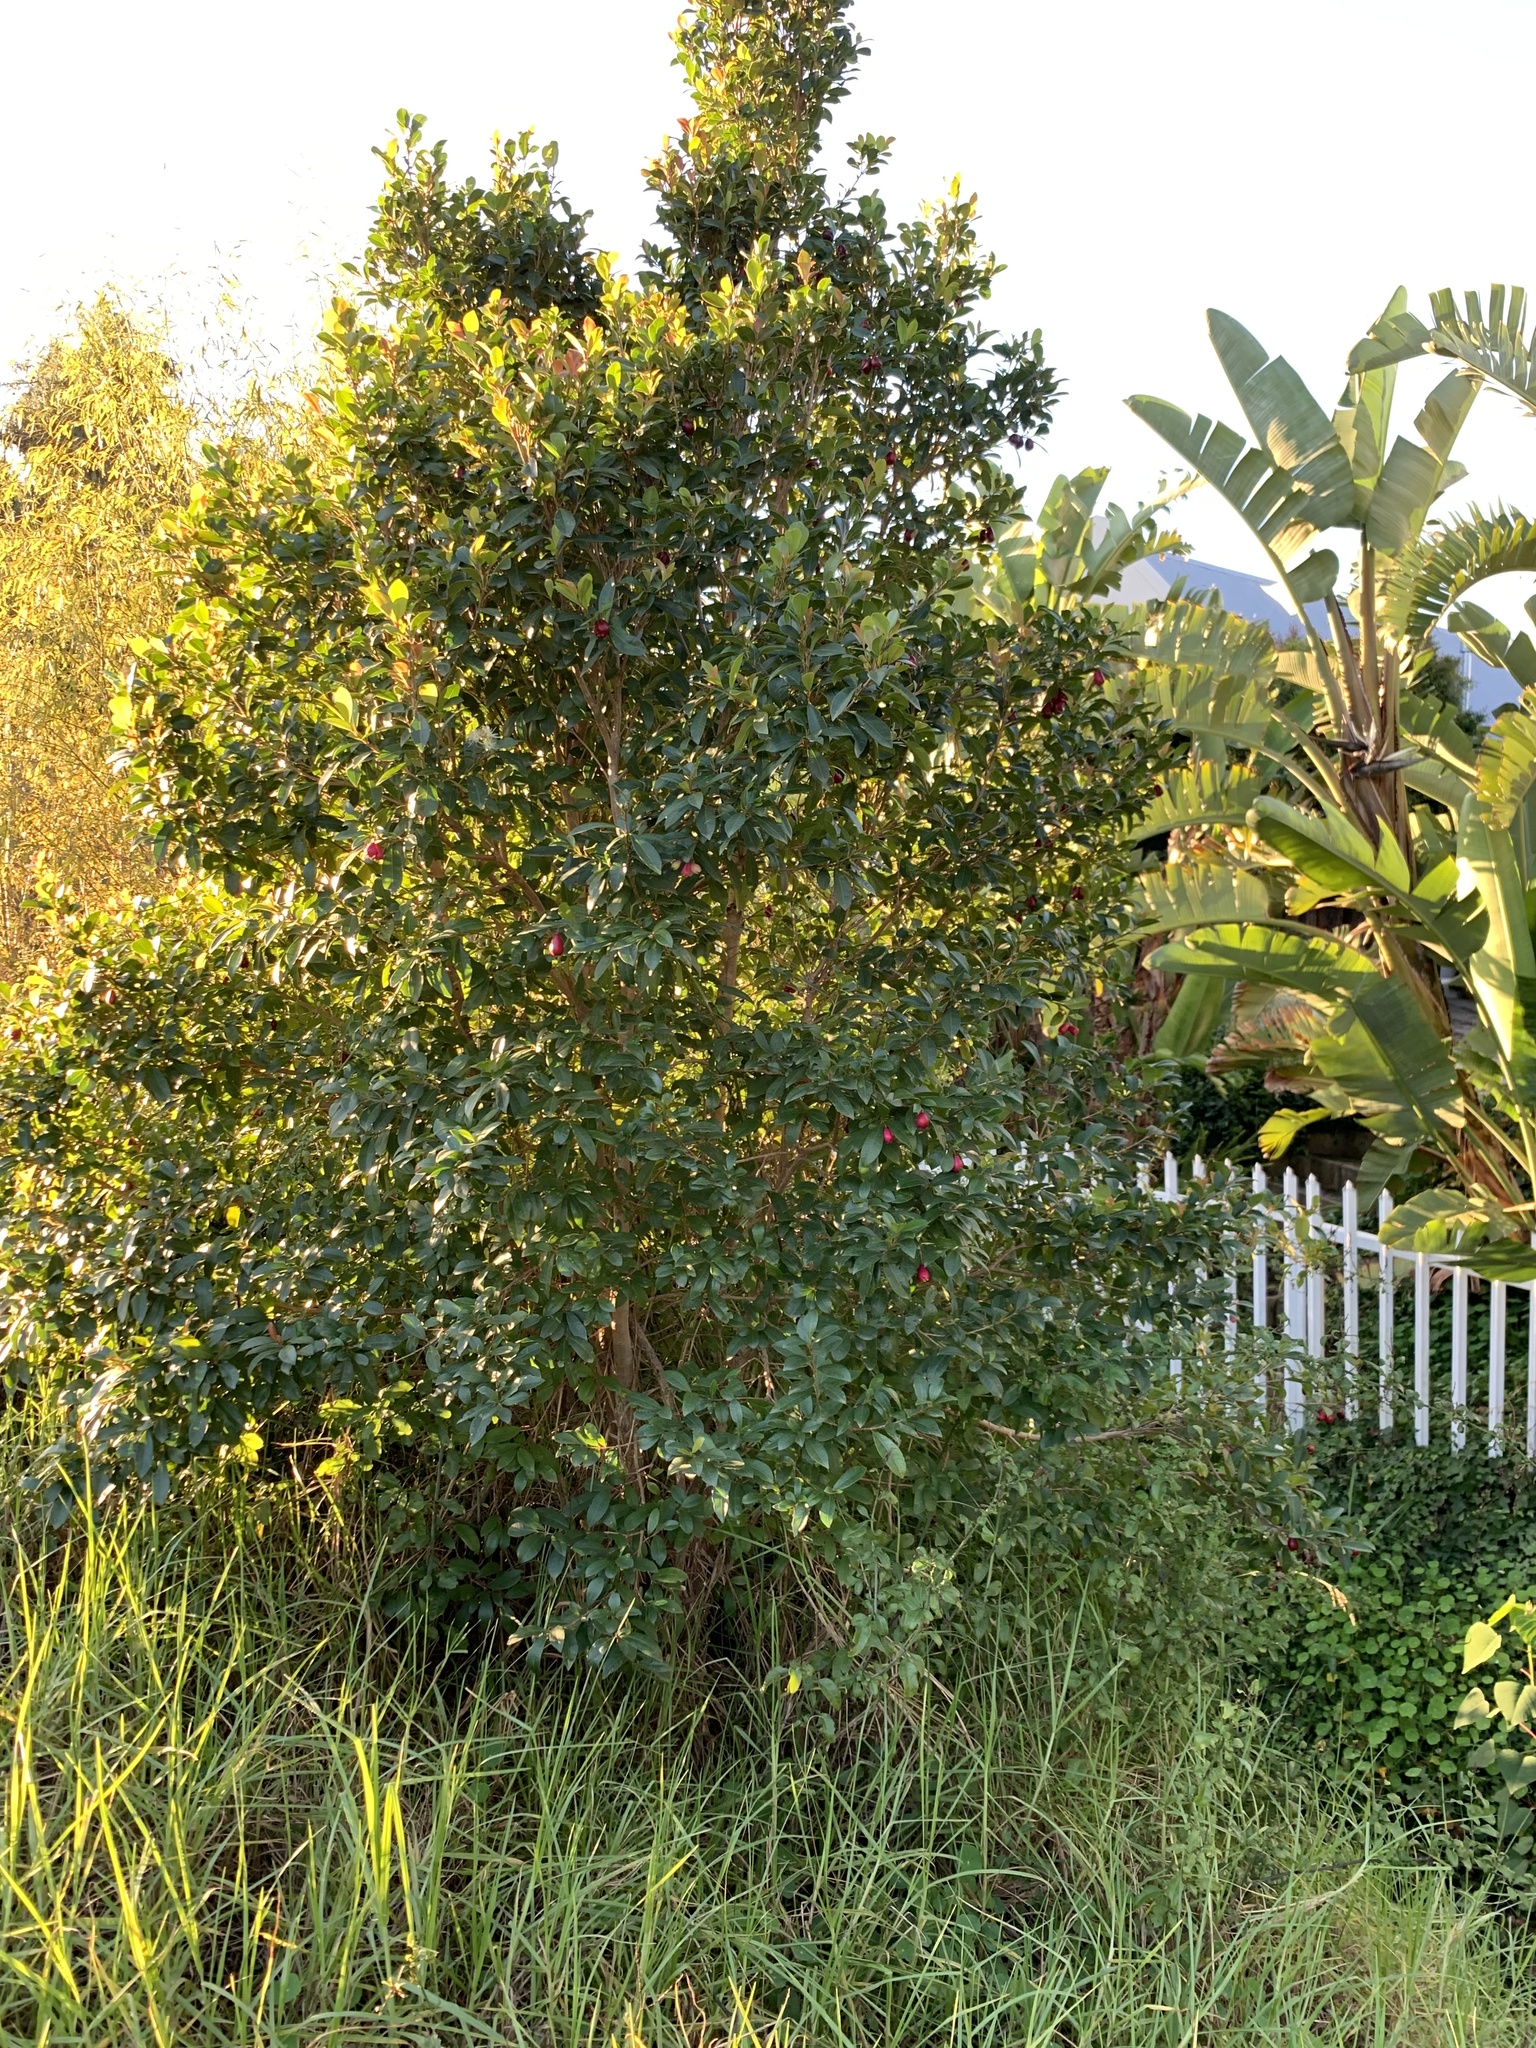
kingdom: Plantae
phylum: Tracheophyta
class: Magnoliopsida
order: Myrtales
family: Myrtaceae
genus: Syzygium
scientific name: Syzygium australe
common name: Australian brush-cherry
